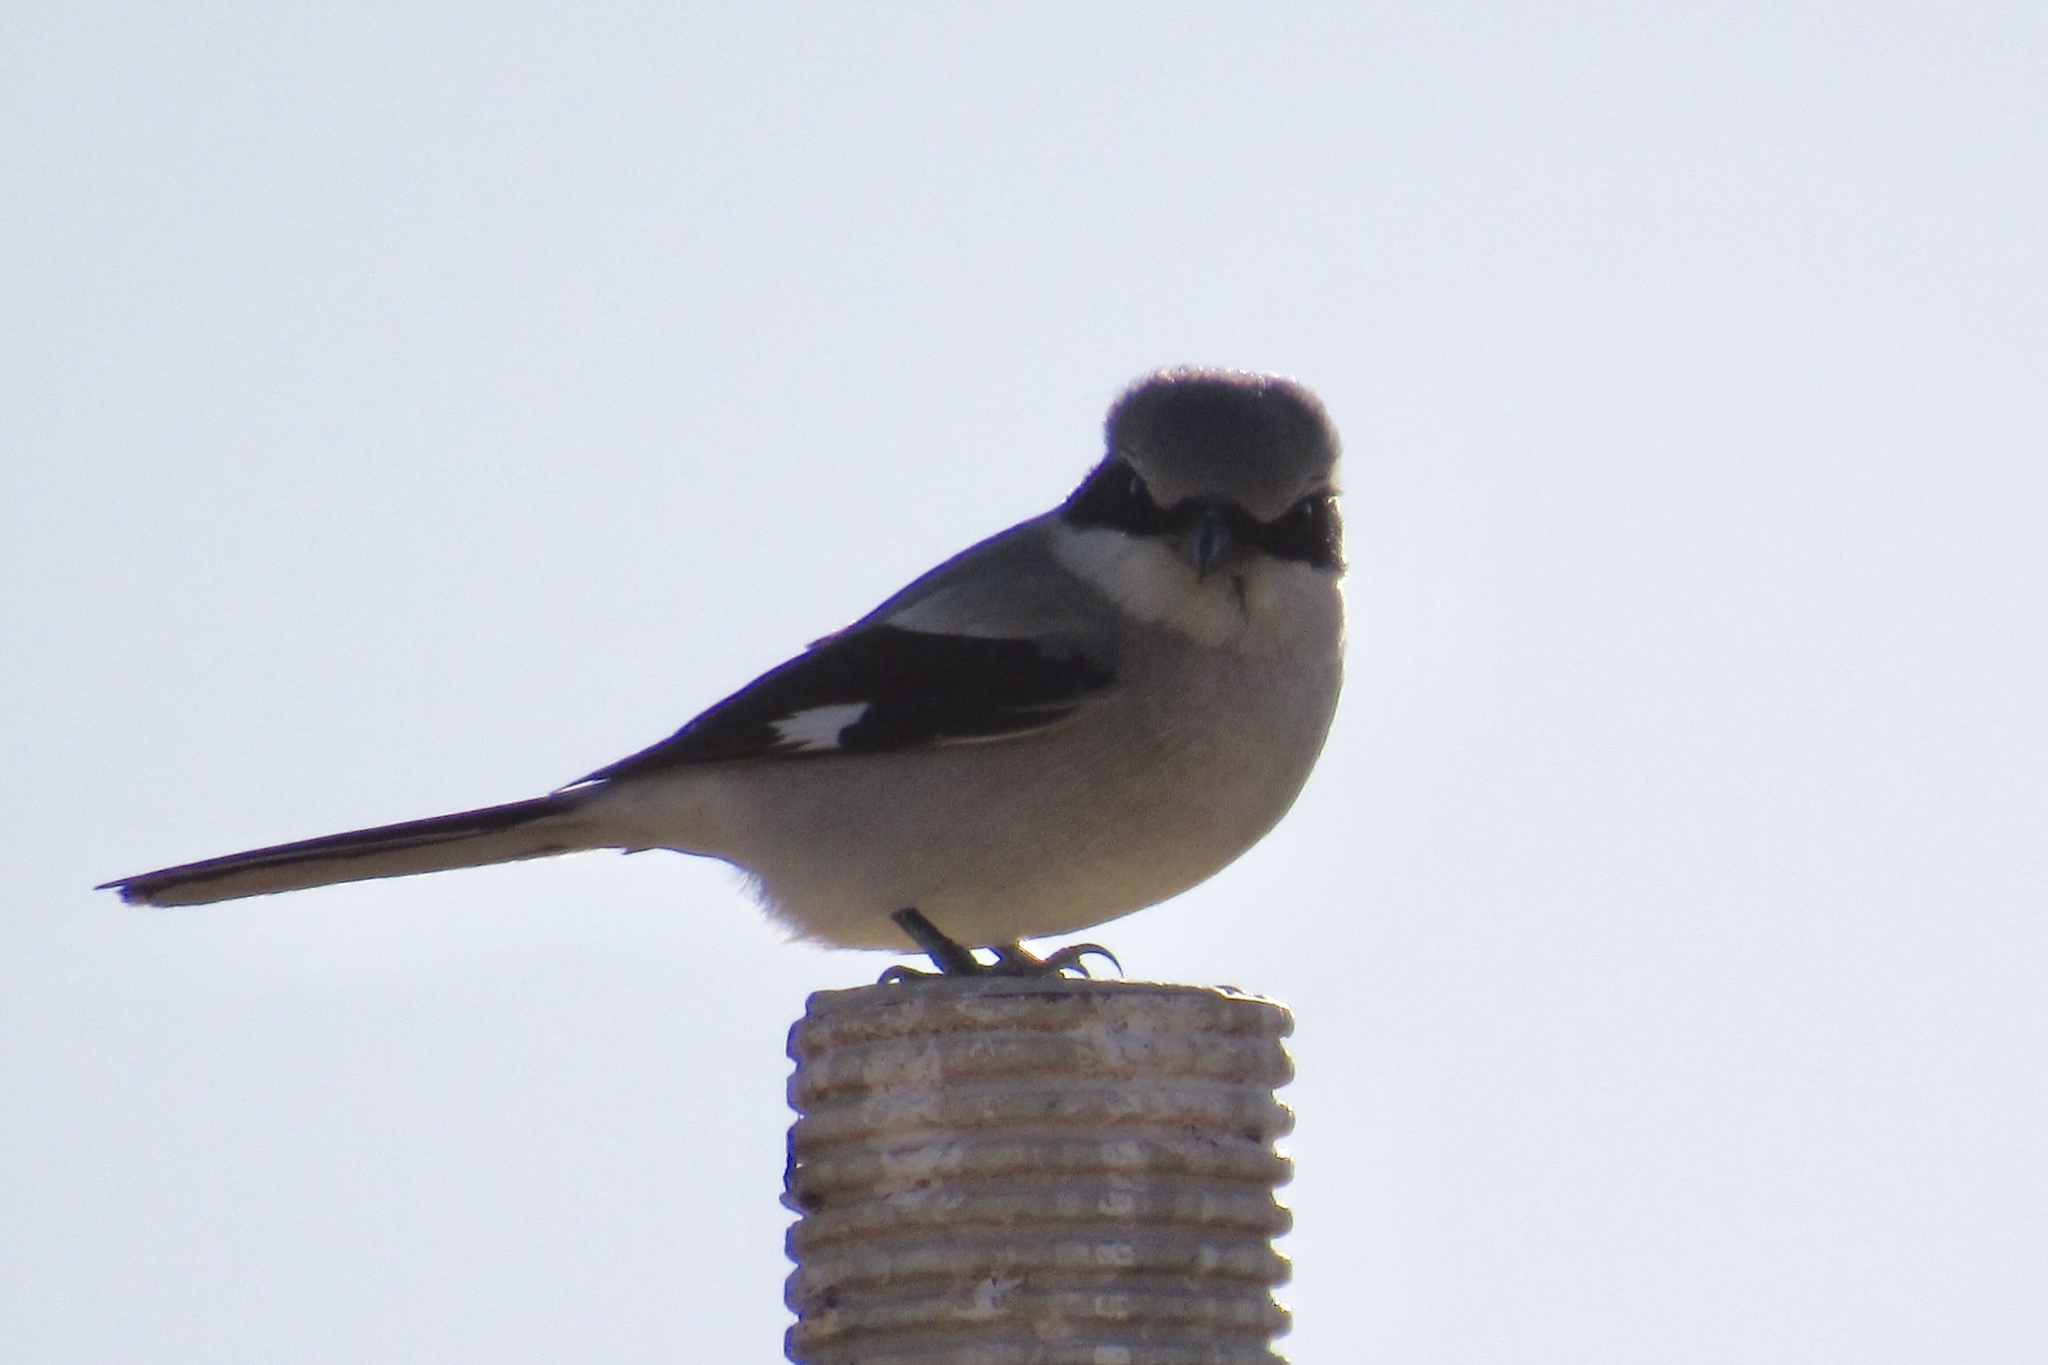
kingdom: Animalia
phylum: Chordata
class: Aves
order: Passeriformes
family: Laniidae
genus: Lanius
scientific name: Lanius ludovicianus
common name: Loggerhead shrike
